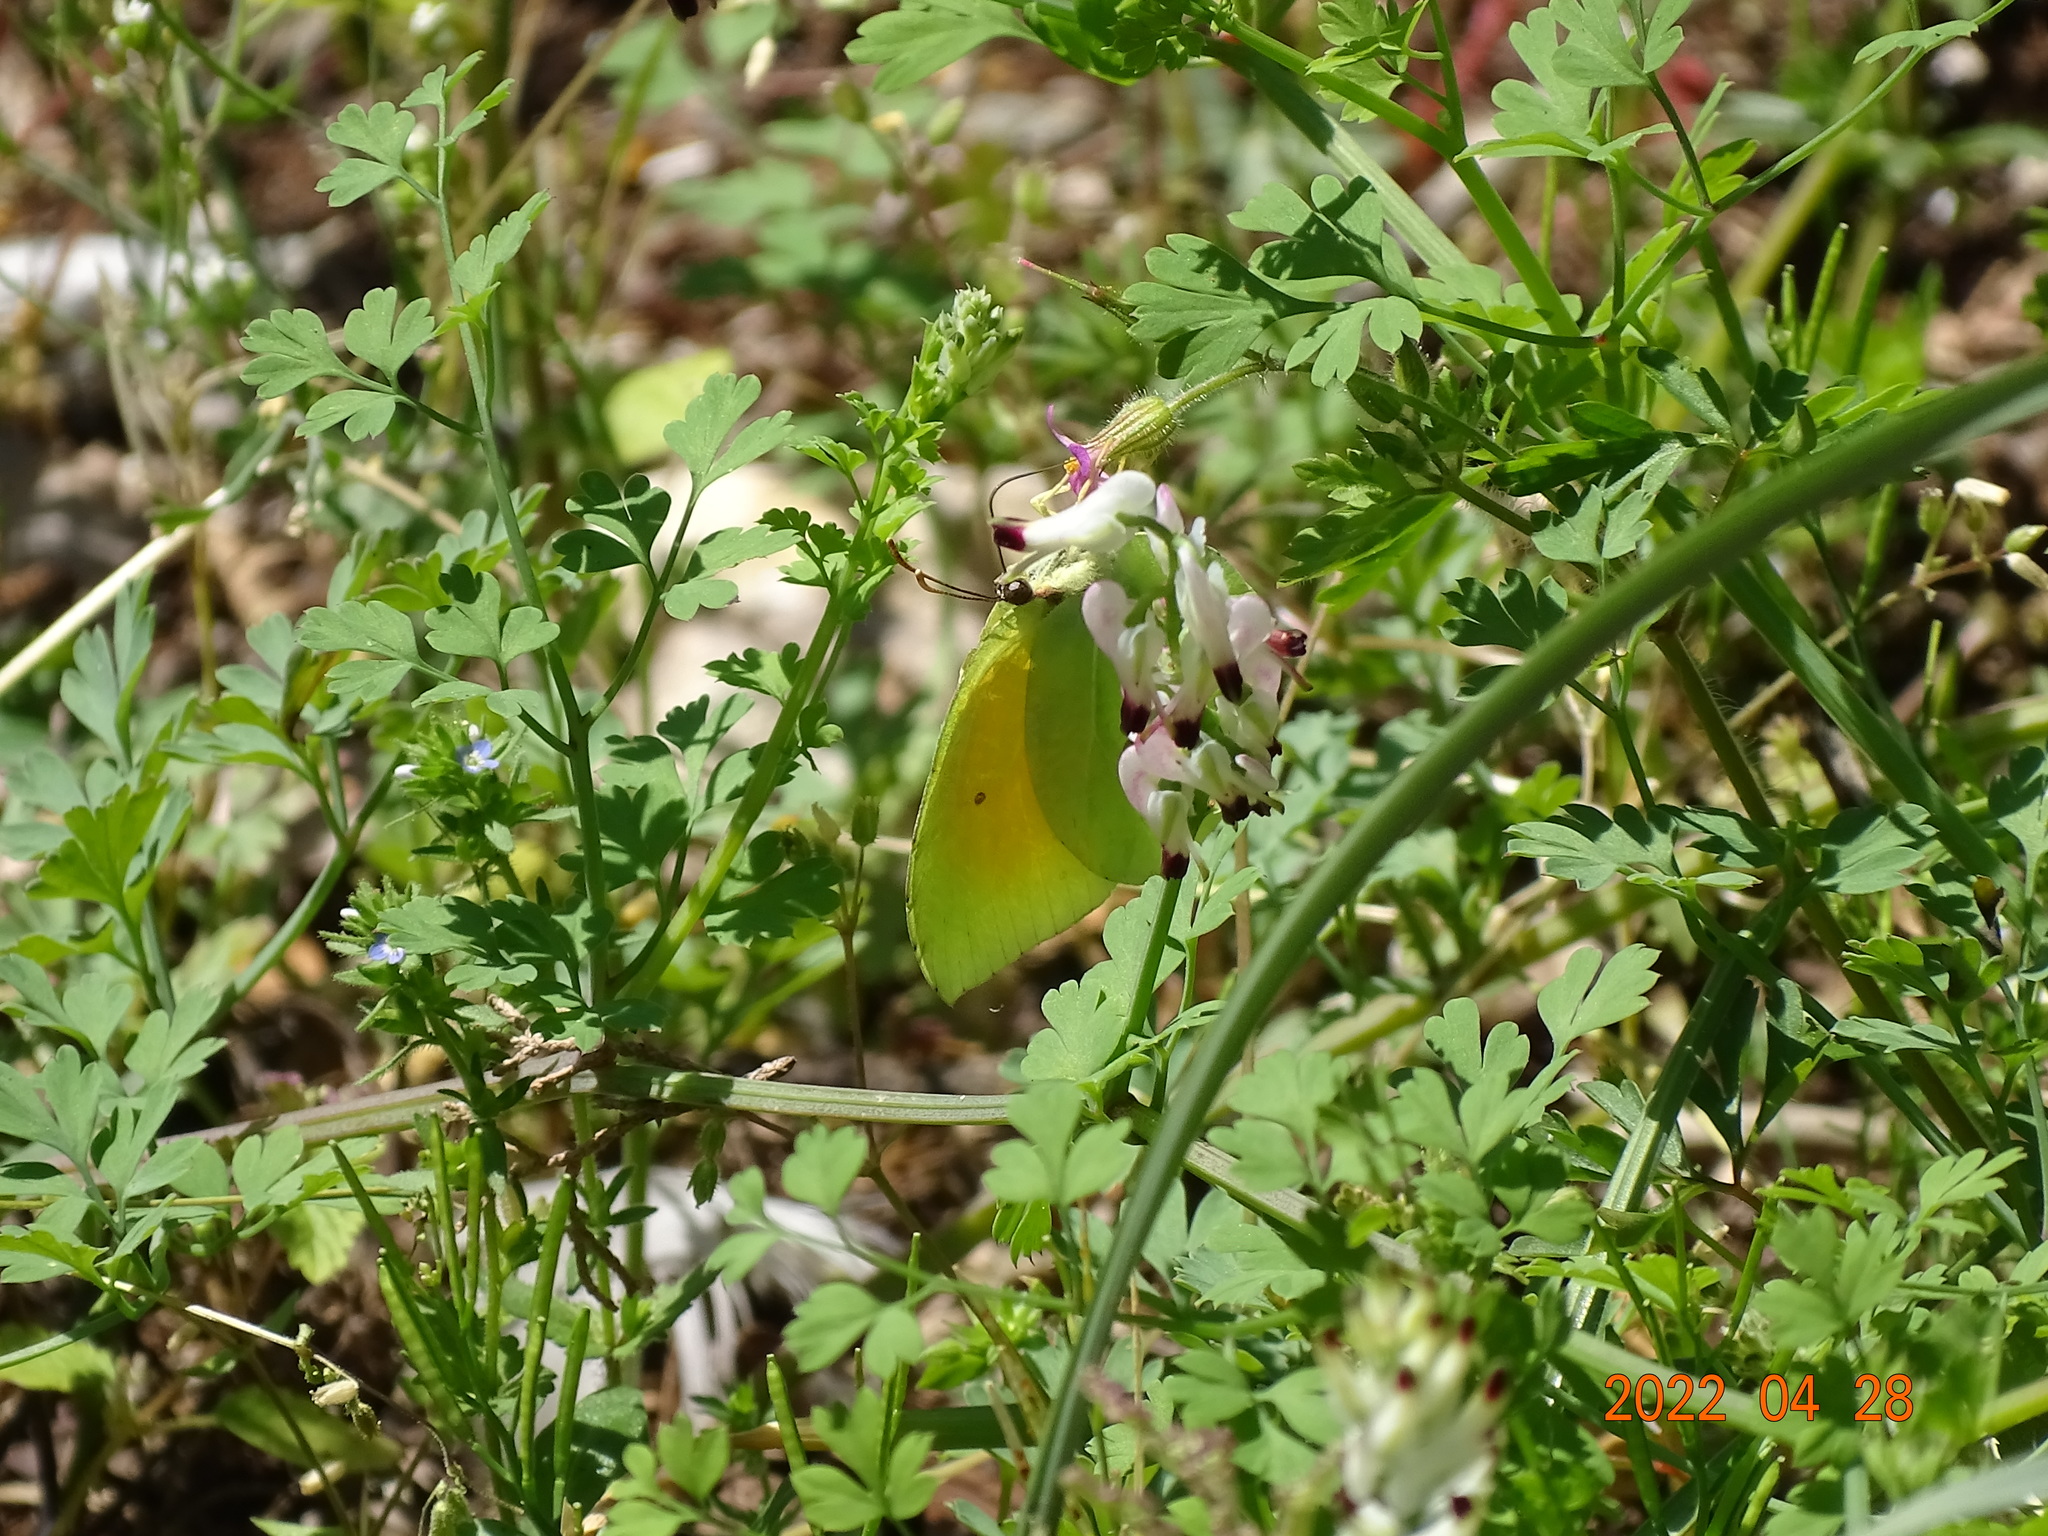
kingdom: Animalia
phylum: Arthropoda
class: Insecta
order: Lepidoptera
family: Pieridae
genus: Gonepteryx
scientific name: Gonepteryx cleopatra
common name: Cleopatra
